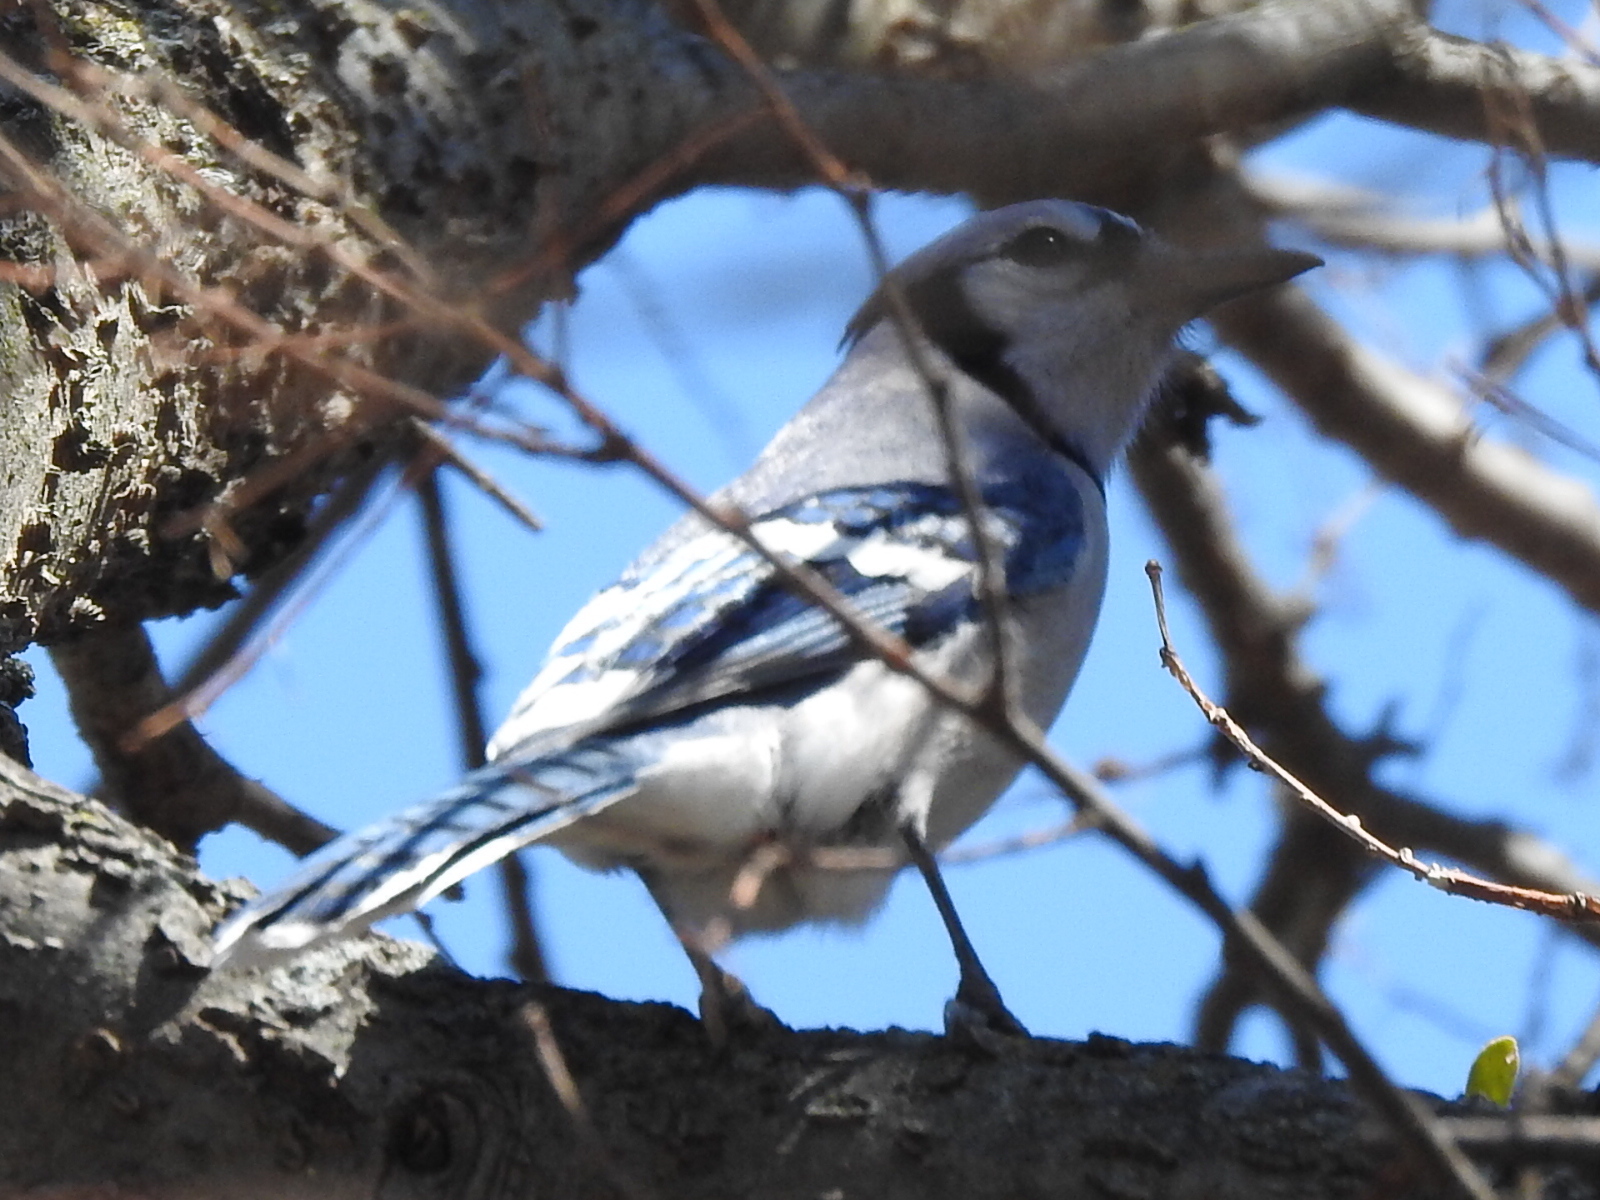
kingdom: Animalia
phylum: Chordata
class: Aves
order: Passeriformes
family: Corvidae
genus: Cyanocitta
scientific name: Cyanocitta cristata
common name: Blue jay
